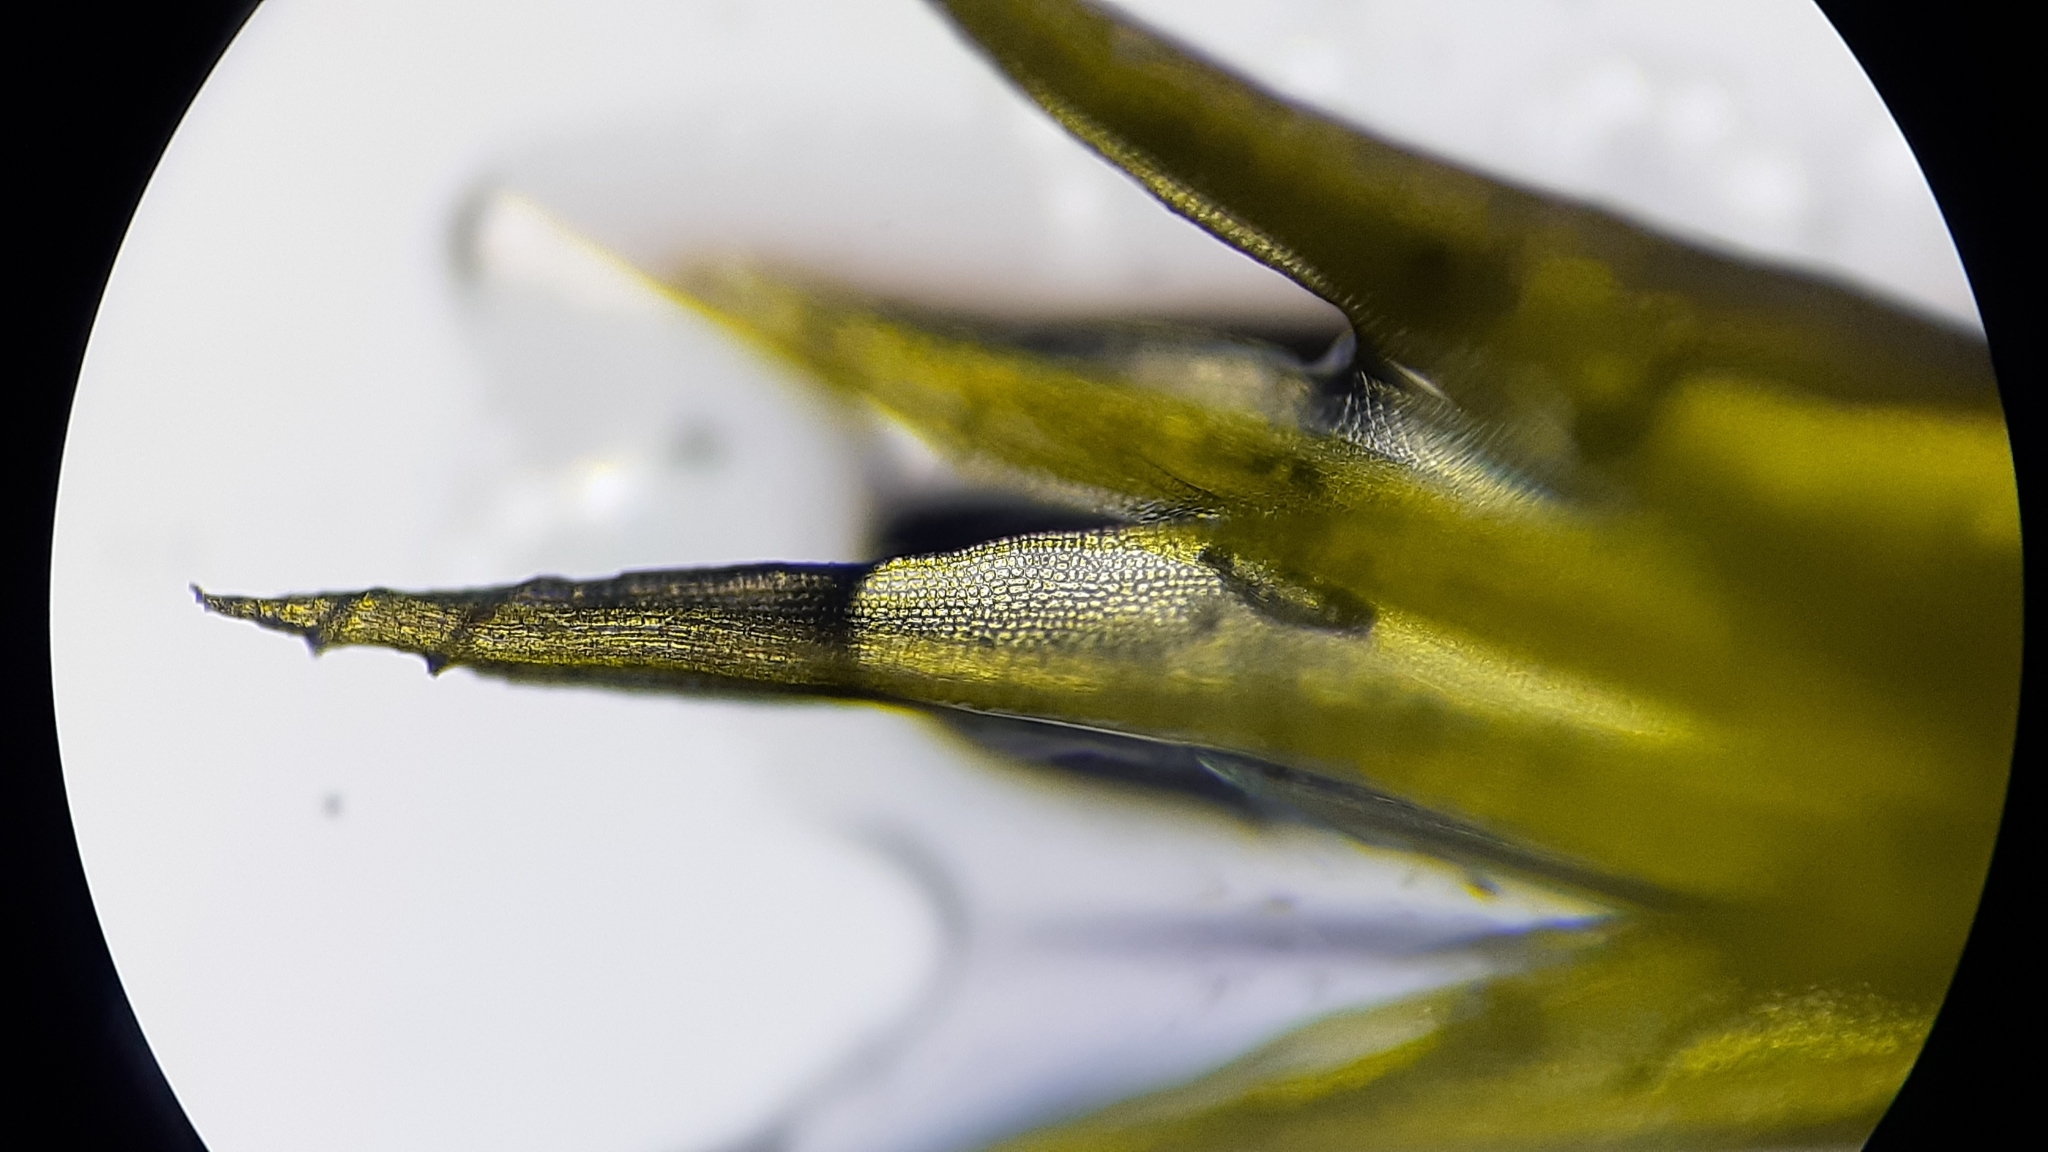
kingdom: Plantae
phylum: Bryophyta
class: Bryopsida
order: Dicranales
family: Ditrichaceae
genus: Ceratodon
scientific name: Ceratodon purpureus
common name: Redshank
